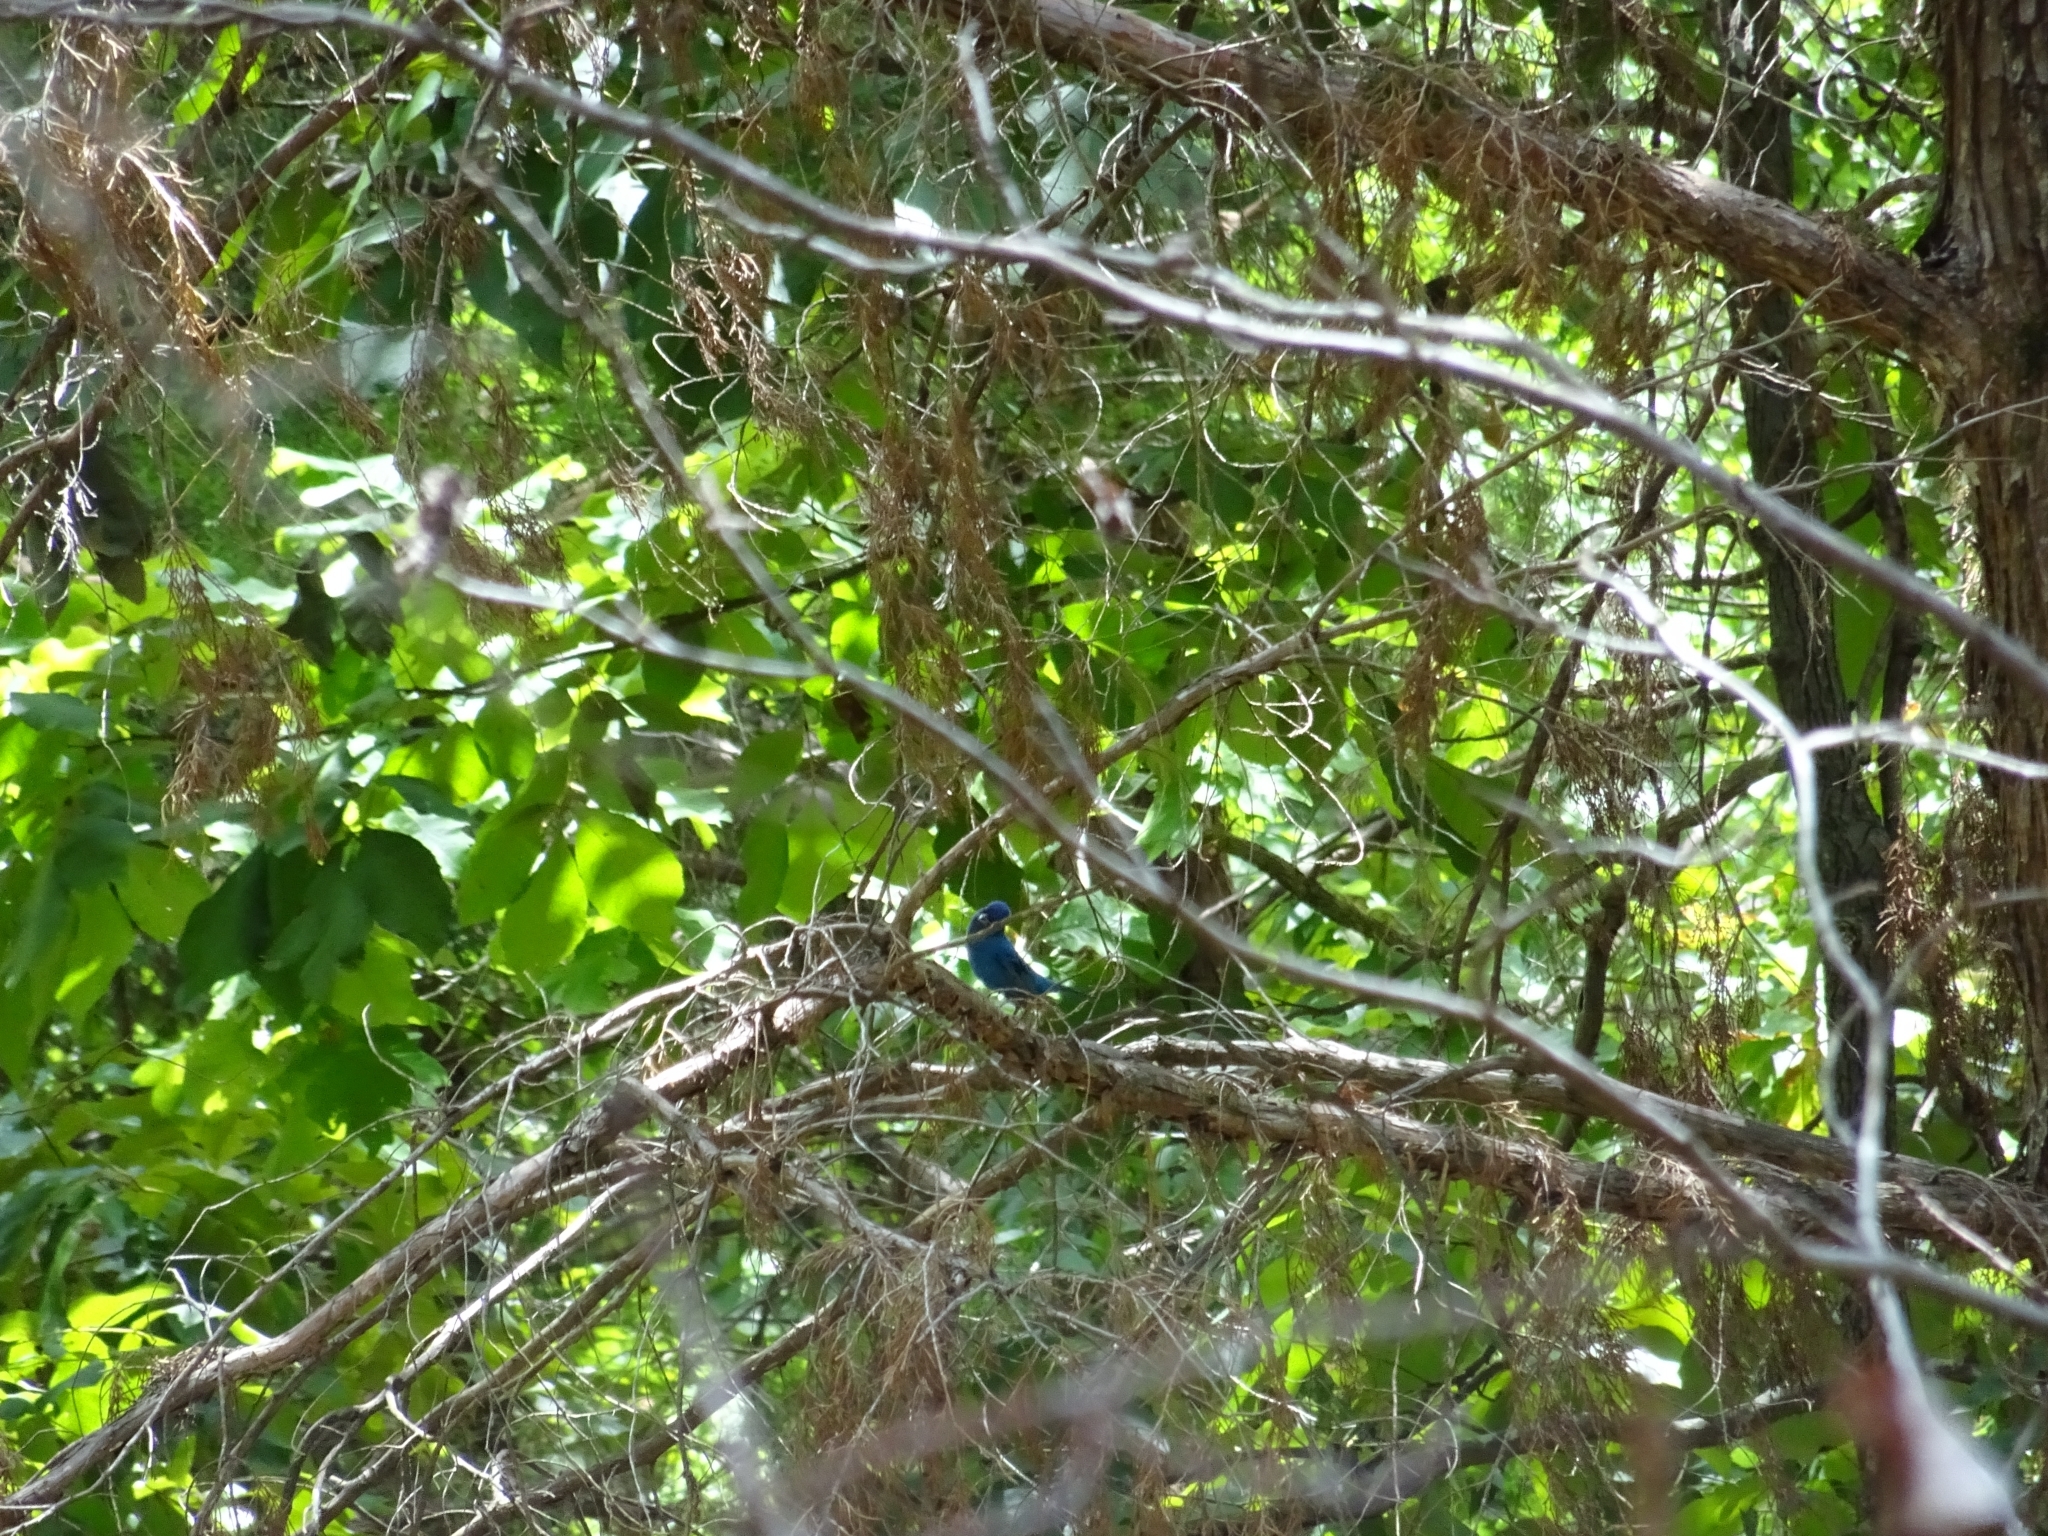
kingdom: Animalia
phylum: Chordata
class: Aves
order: Passeriformes
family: Cardinalidae
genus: Passerina
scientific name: Passerina cyanea
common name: Indigo bunting
